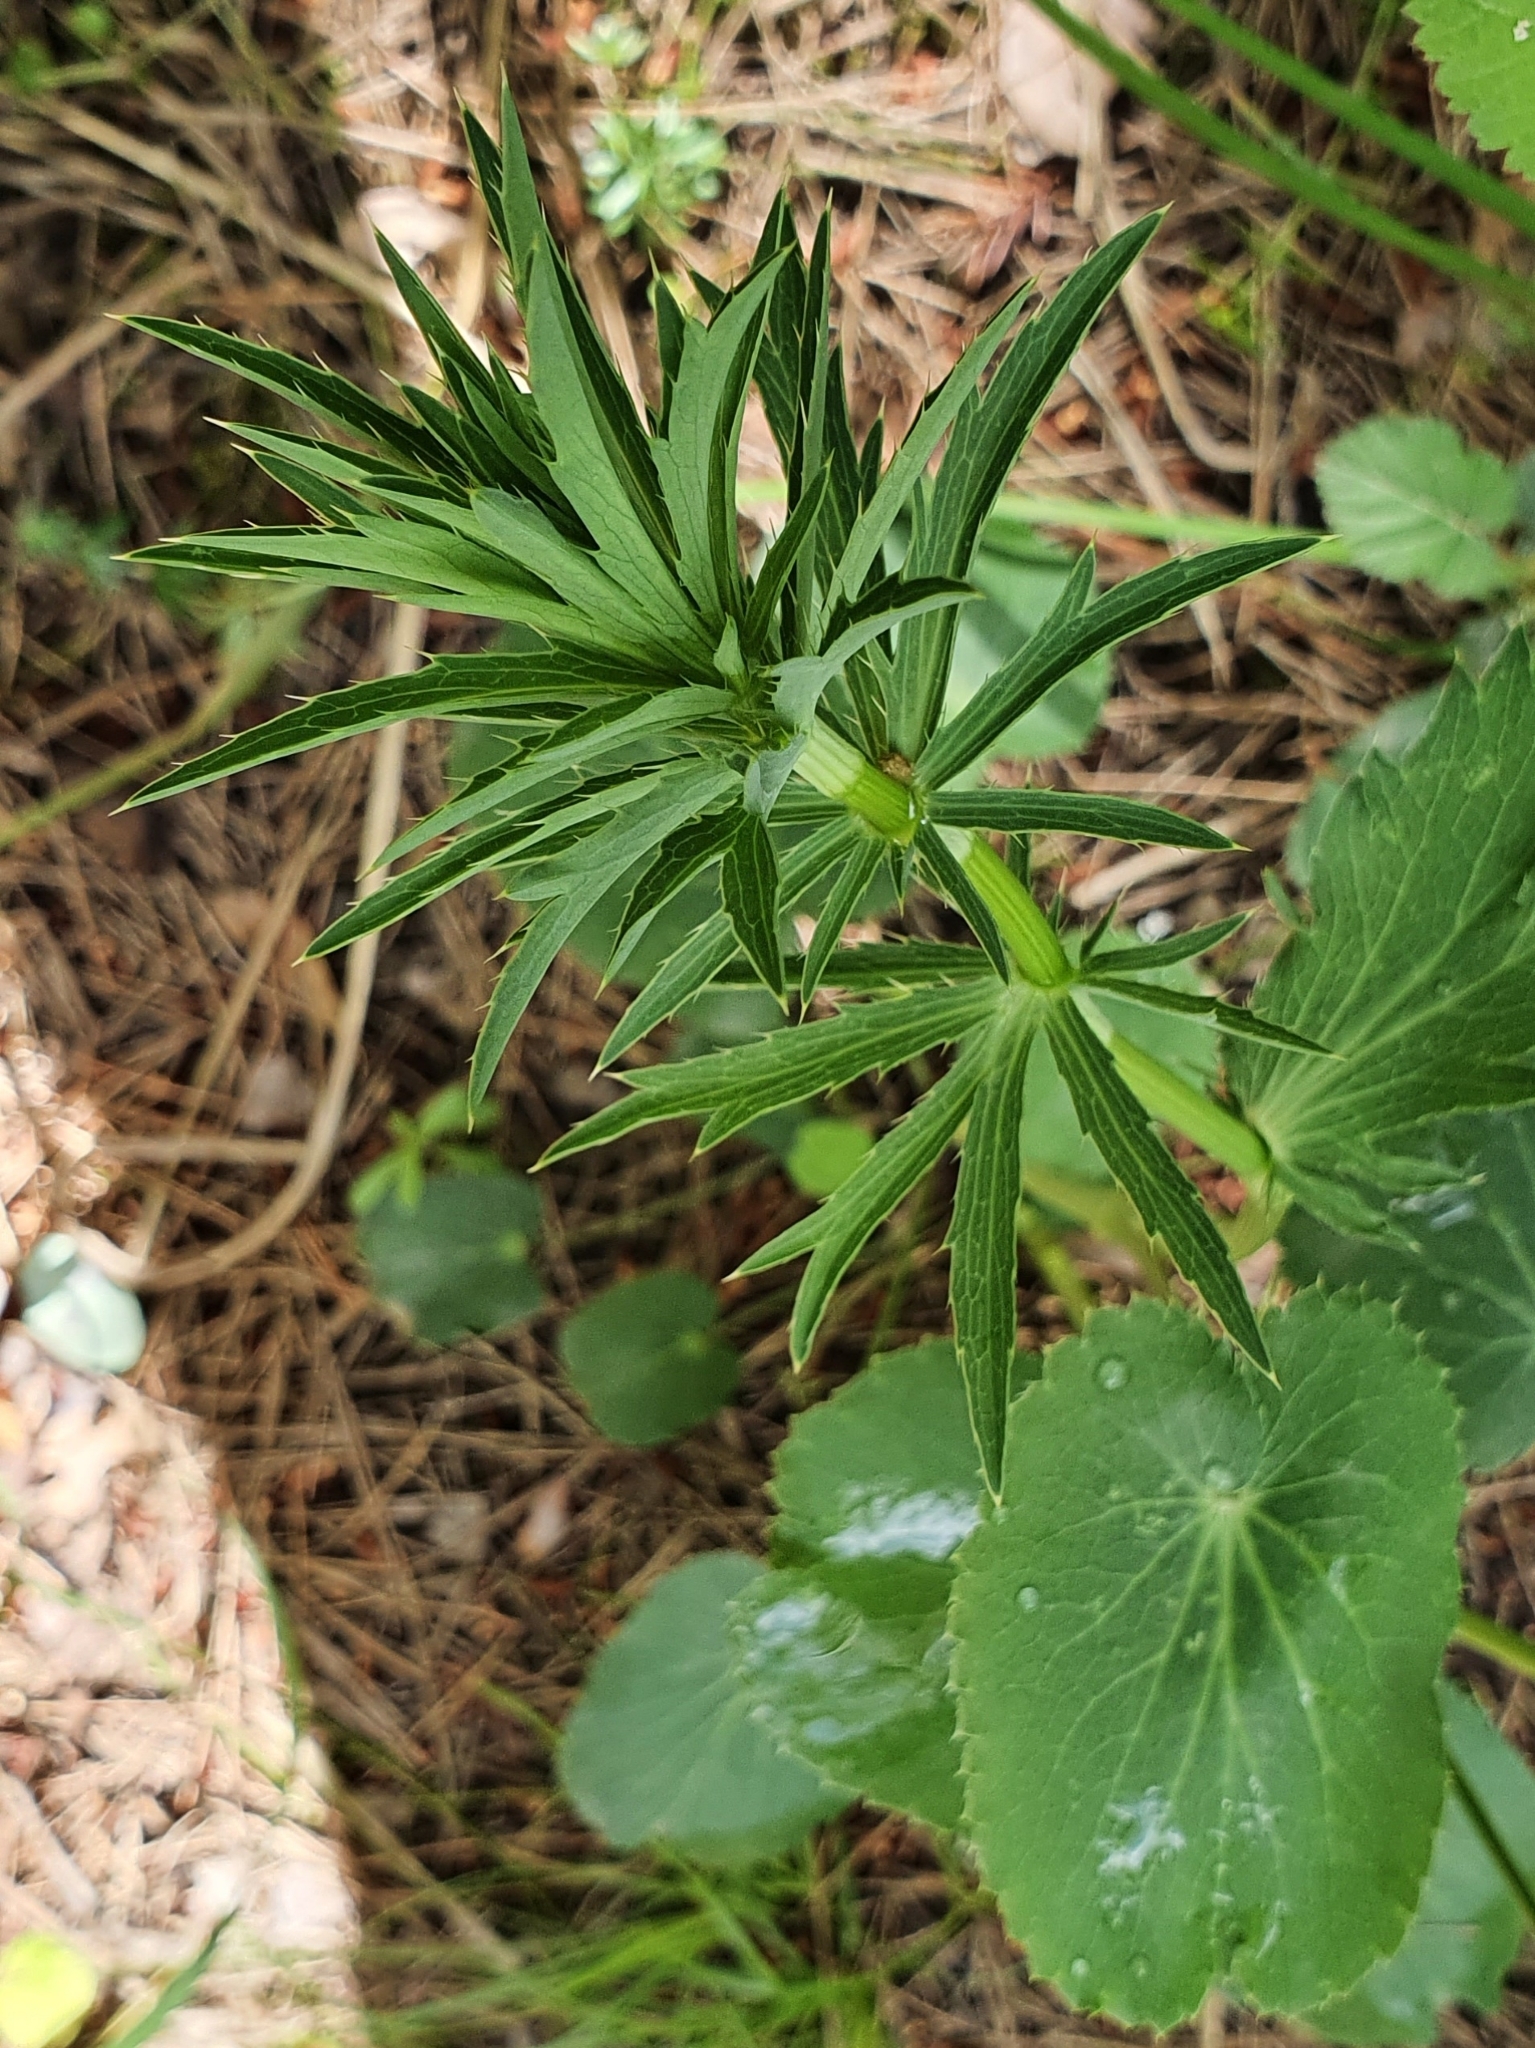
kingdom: Plantae
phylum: Tracheophyta
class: Magnoliopsida
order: Apiales
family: Apiaceae
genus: Eryngium
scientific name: Eryngium tricuspidatum
